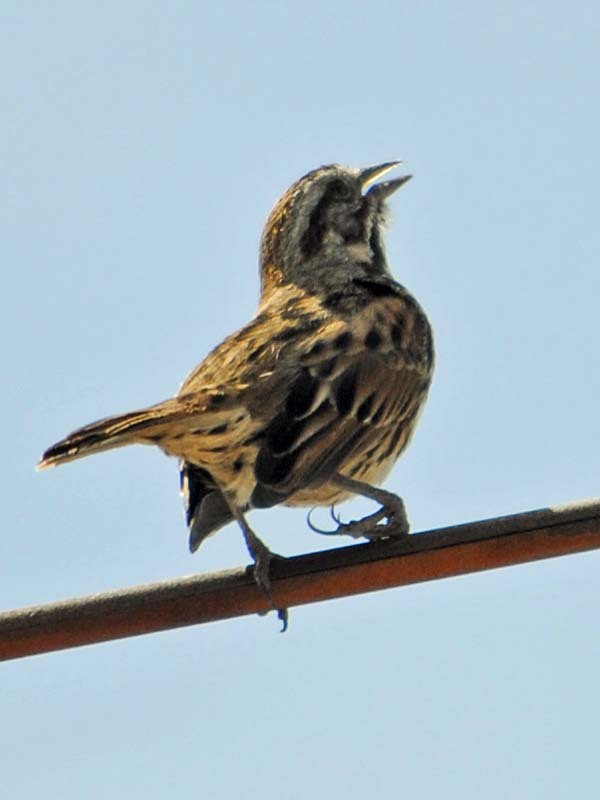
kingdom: Animalia
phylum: Chordata
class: Aves
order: Passeriformes
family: Passerellidae
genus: Melospiza
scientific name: Melospiza melodia
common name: Song sparrow
